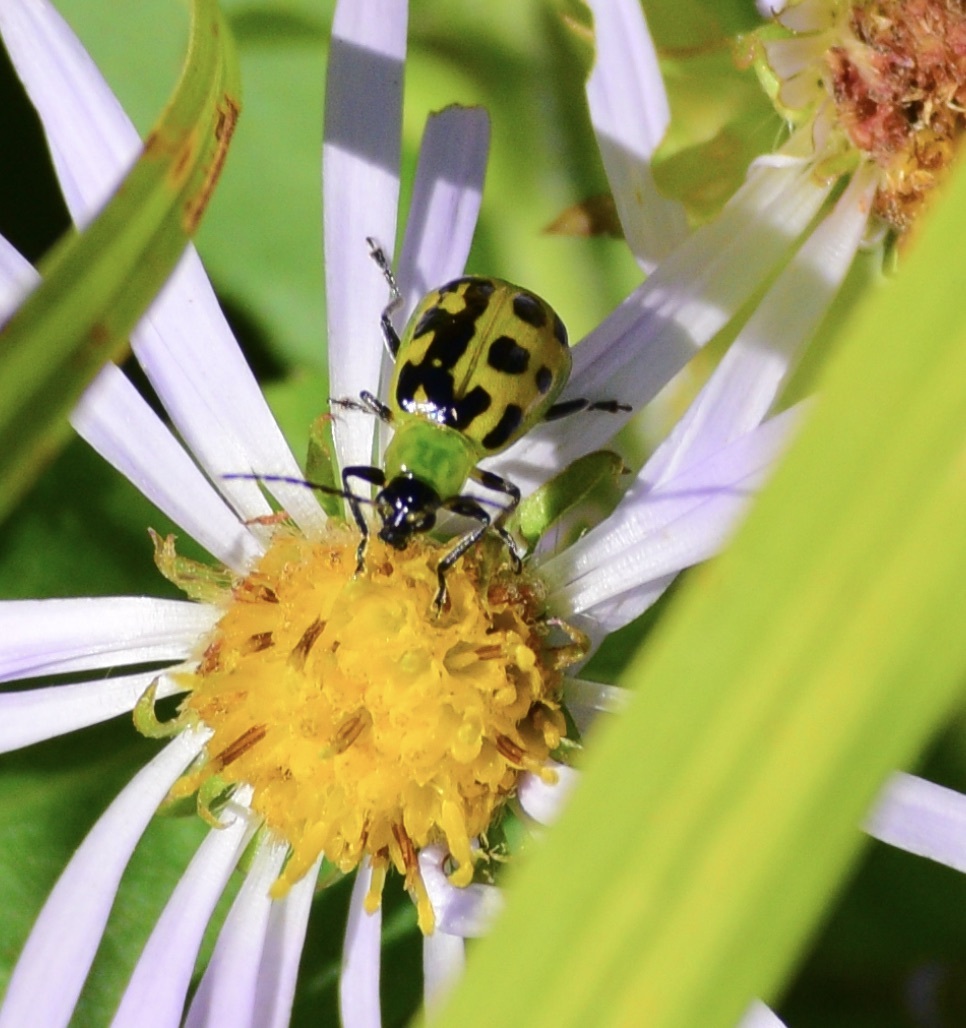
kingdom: Animalia
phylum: Arthropoda
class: Insecta
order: Coleoptera
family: Chrysomelidae
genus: Diabrotica
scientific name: Diabrotica undecimpunctata
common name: Spotted cucumber beetle
